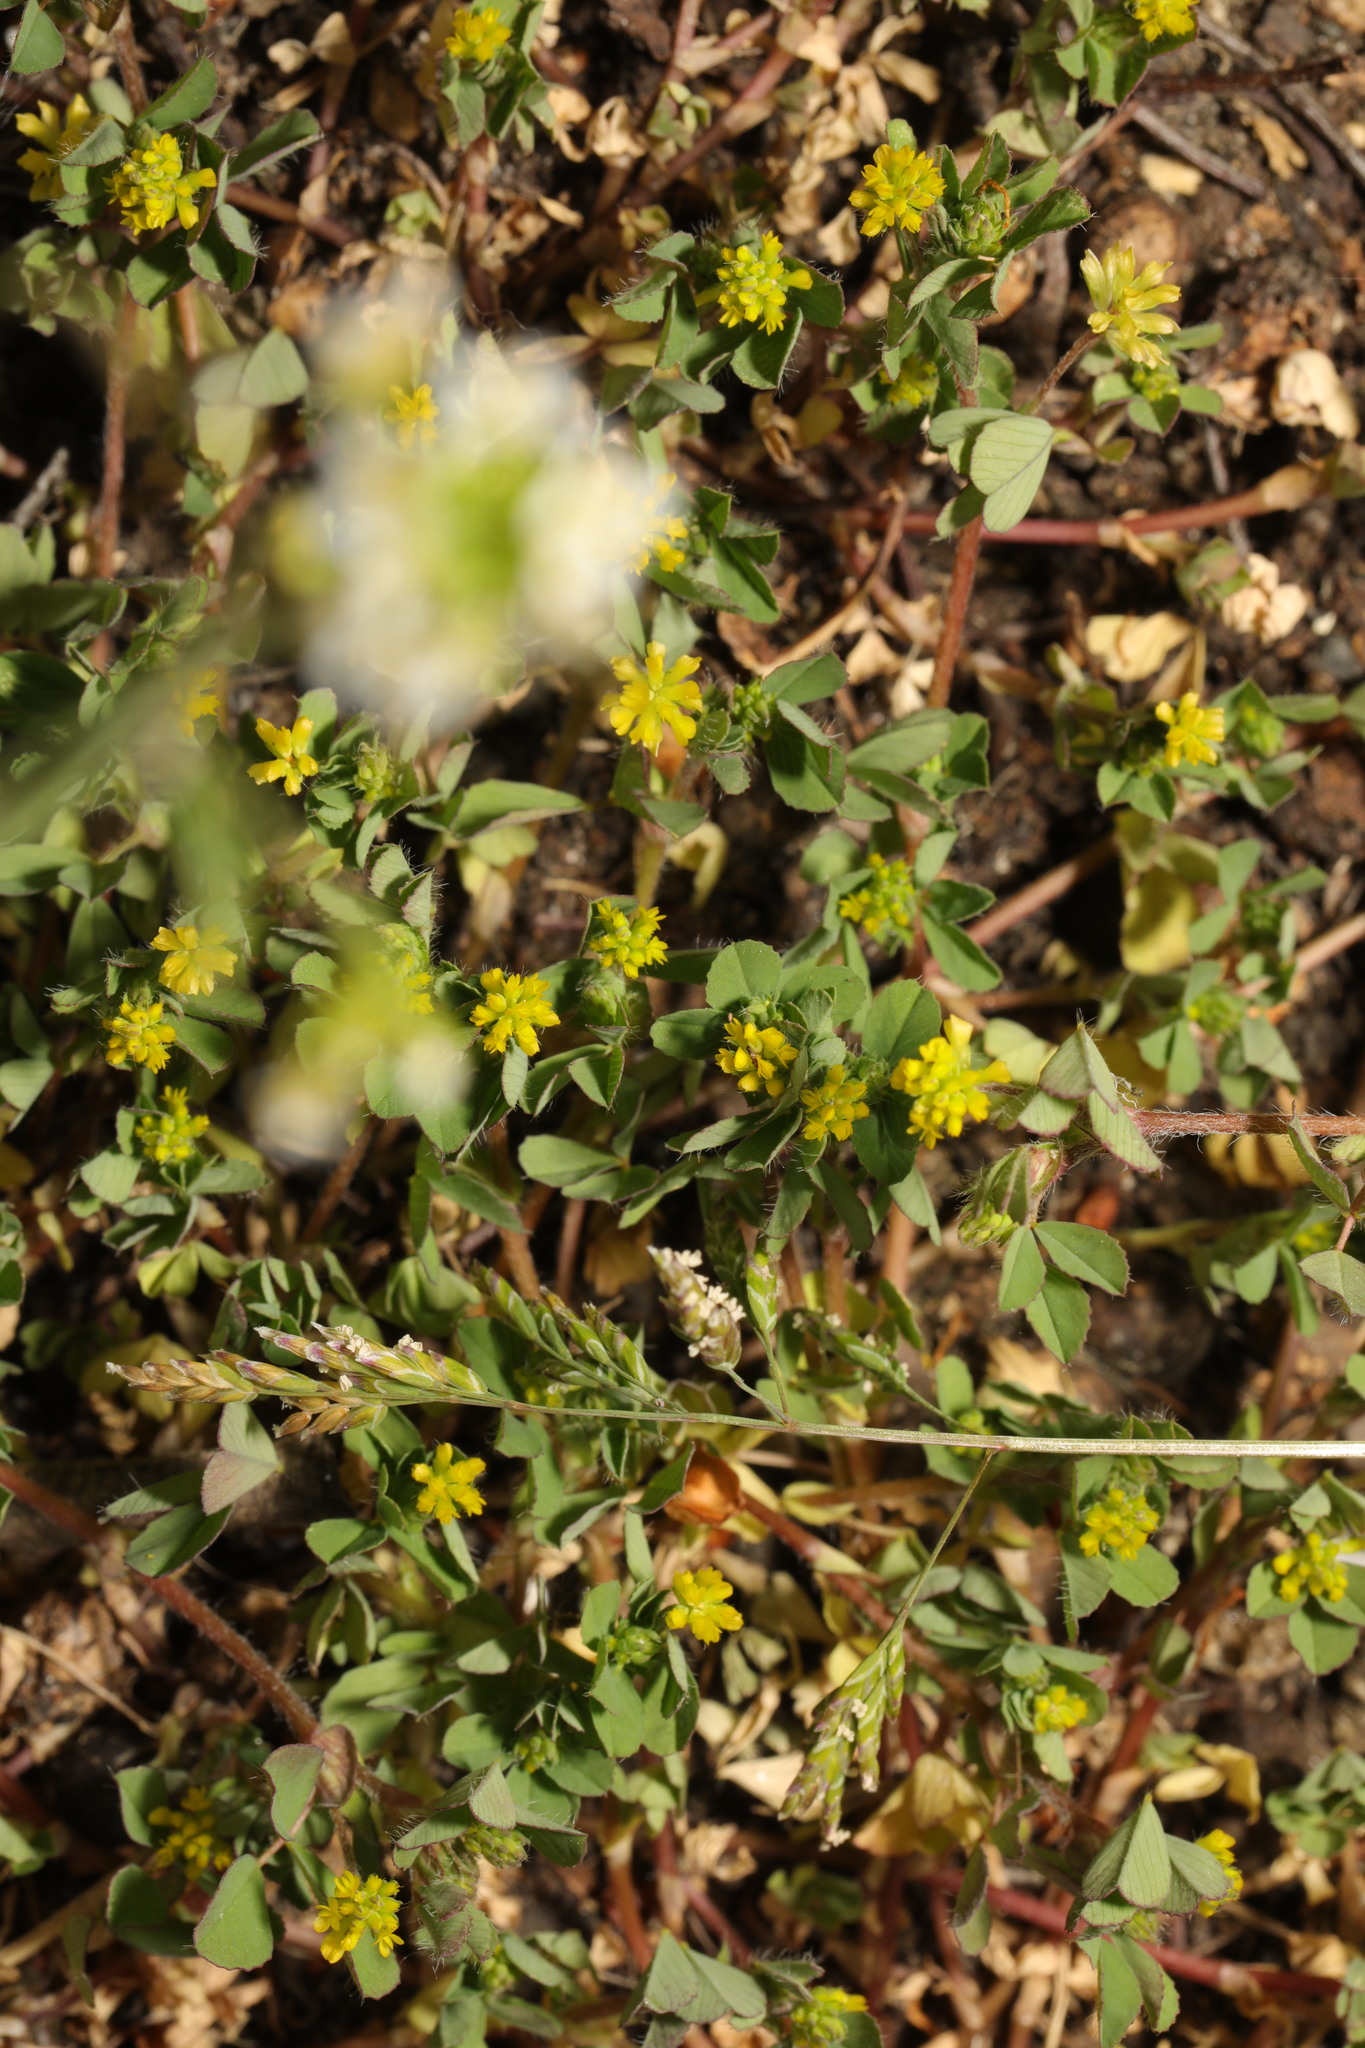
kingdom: Plantae
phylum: Tracheophyta
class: Magnoliopsida
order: Fabales
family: Fabaceae
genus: Trifolium
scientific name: Trifolium dubium
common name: Suckling clover
